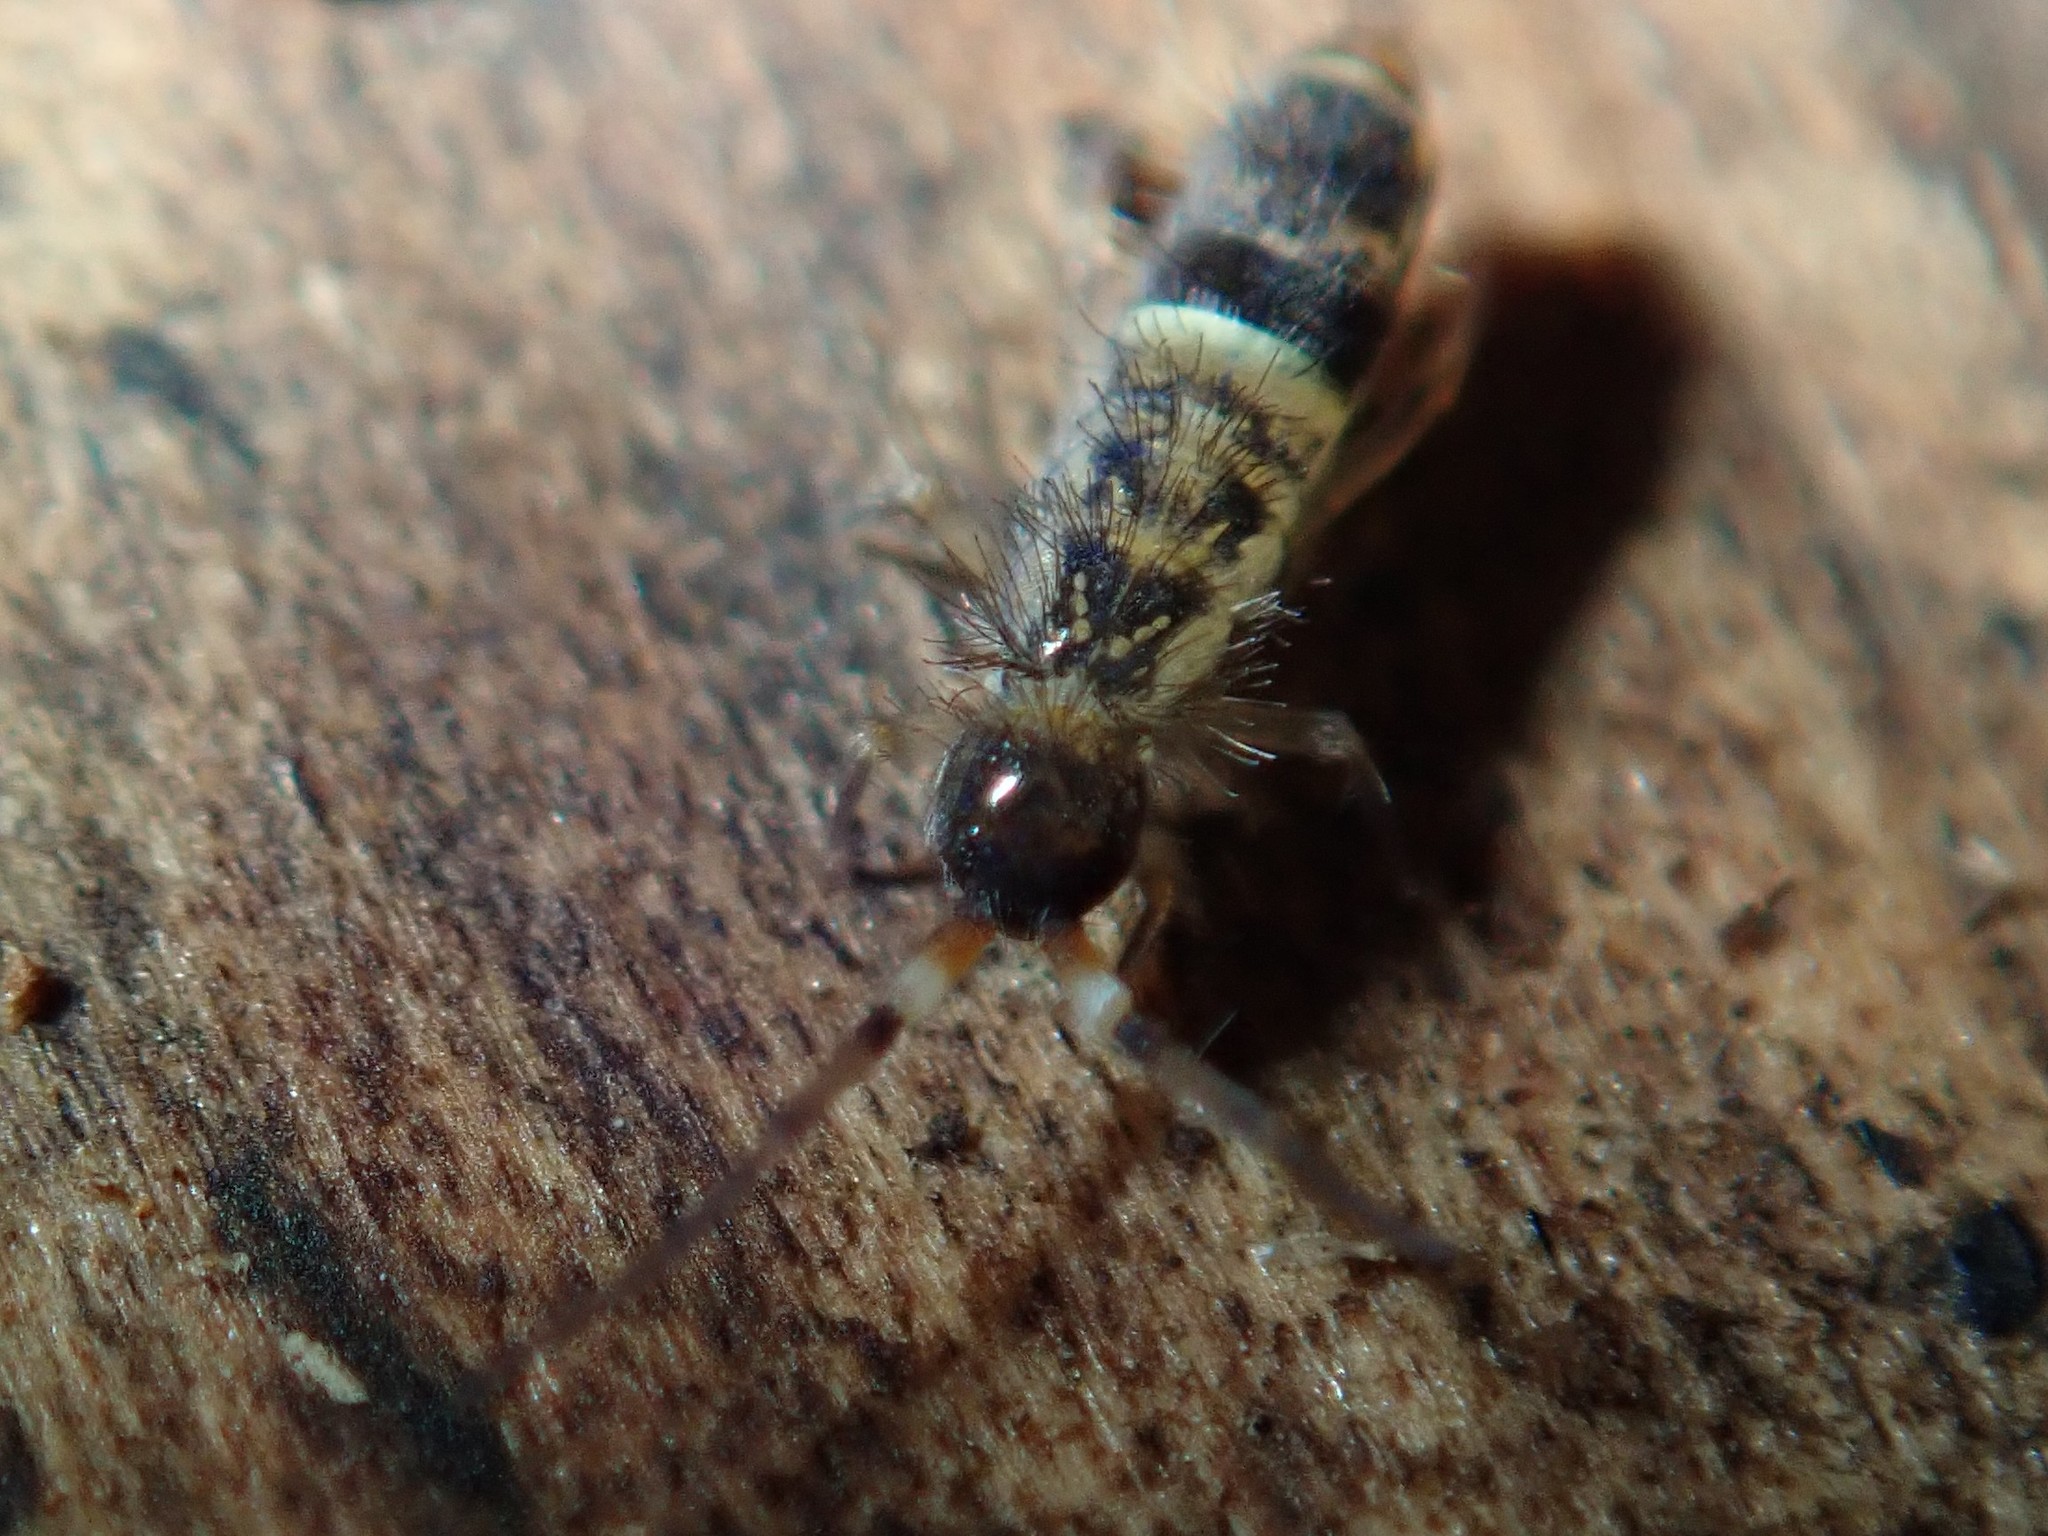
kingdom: Animalia
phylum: Arthropoda
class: Collembola
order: Entomobryomorpha
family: Orchesellidae
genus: Orchesella
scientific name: Orchesella cincta
